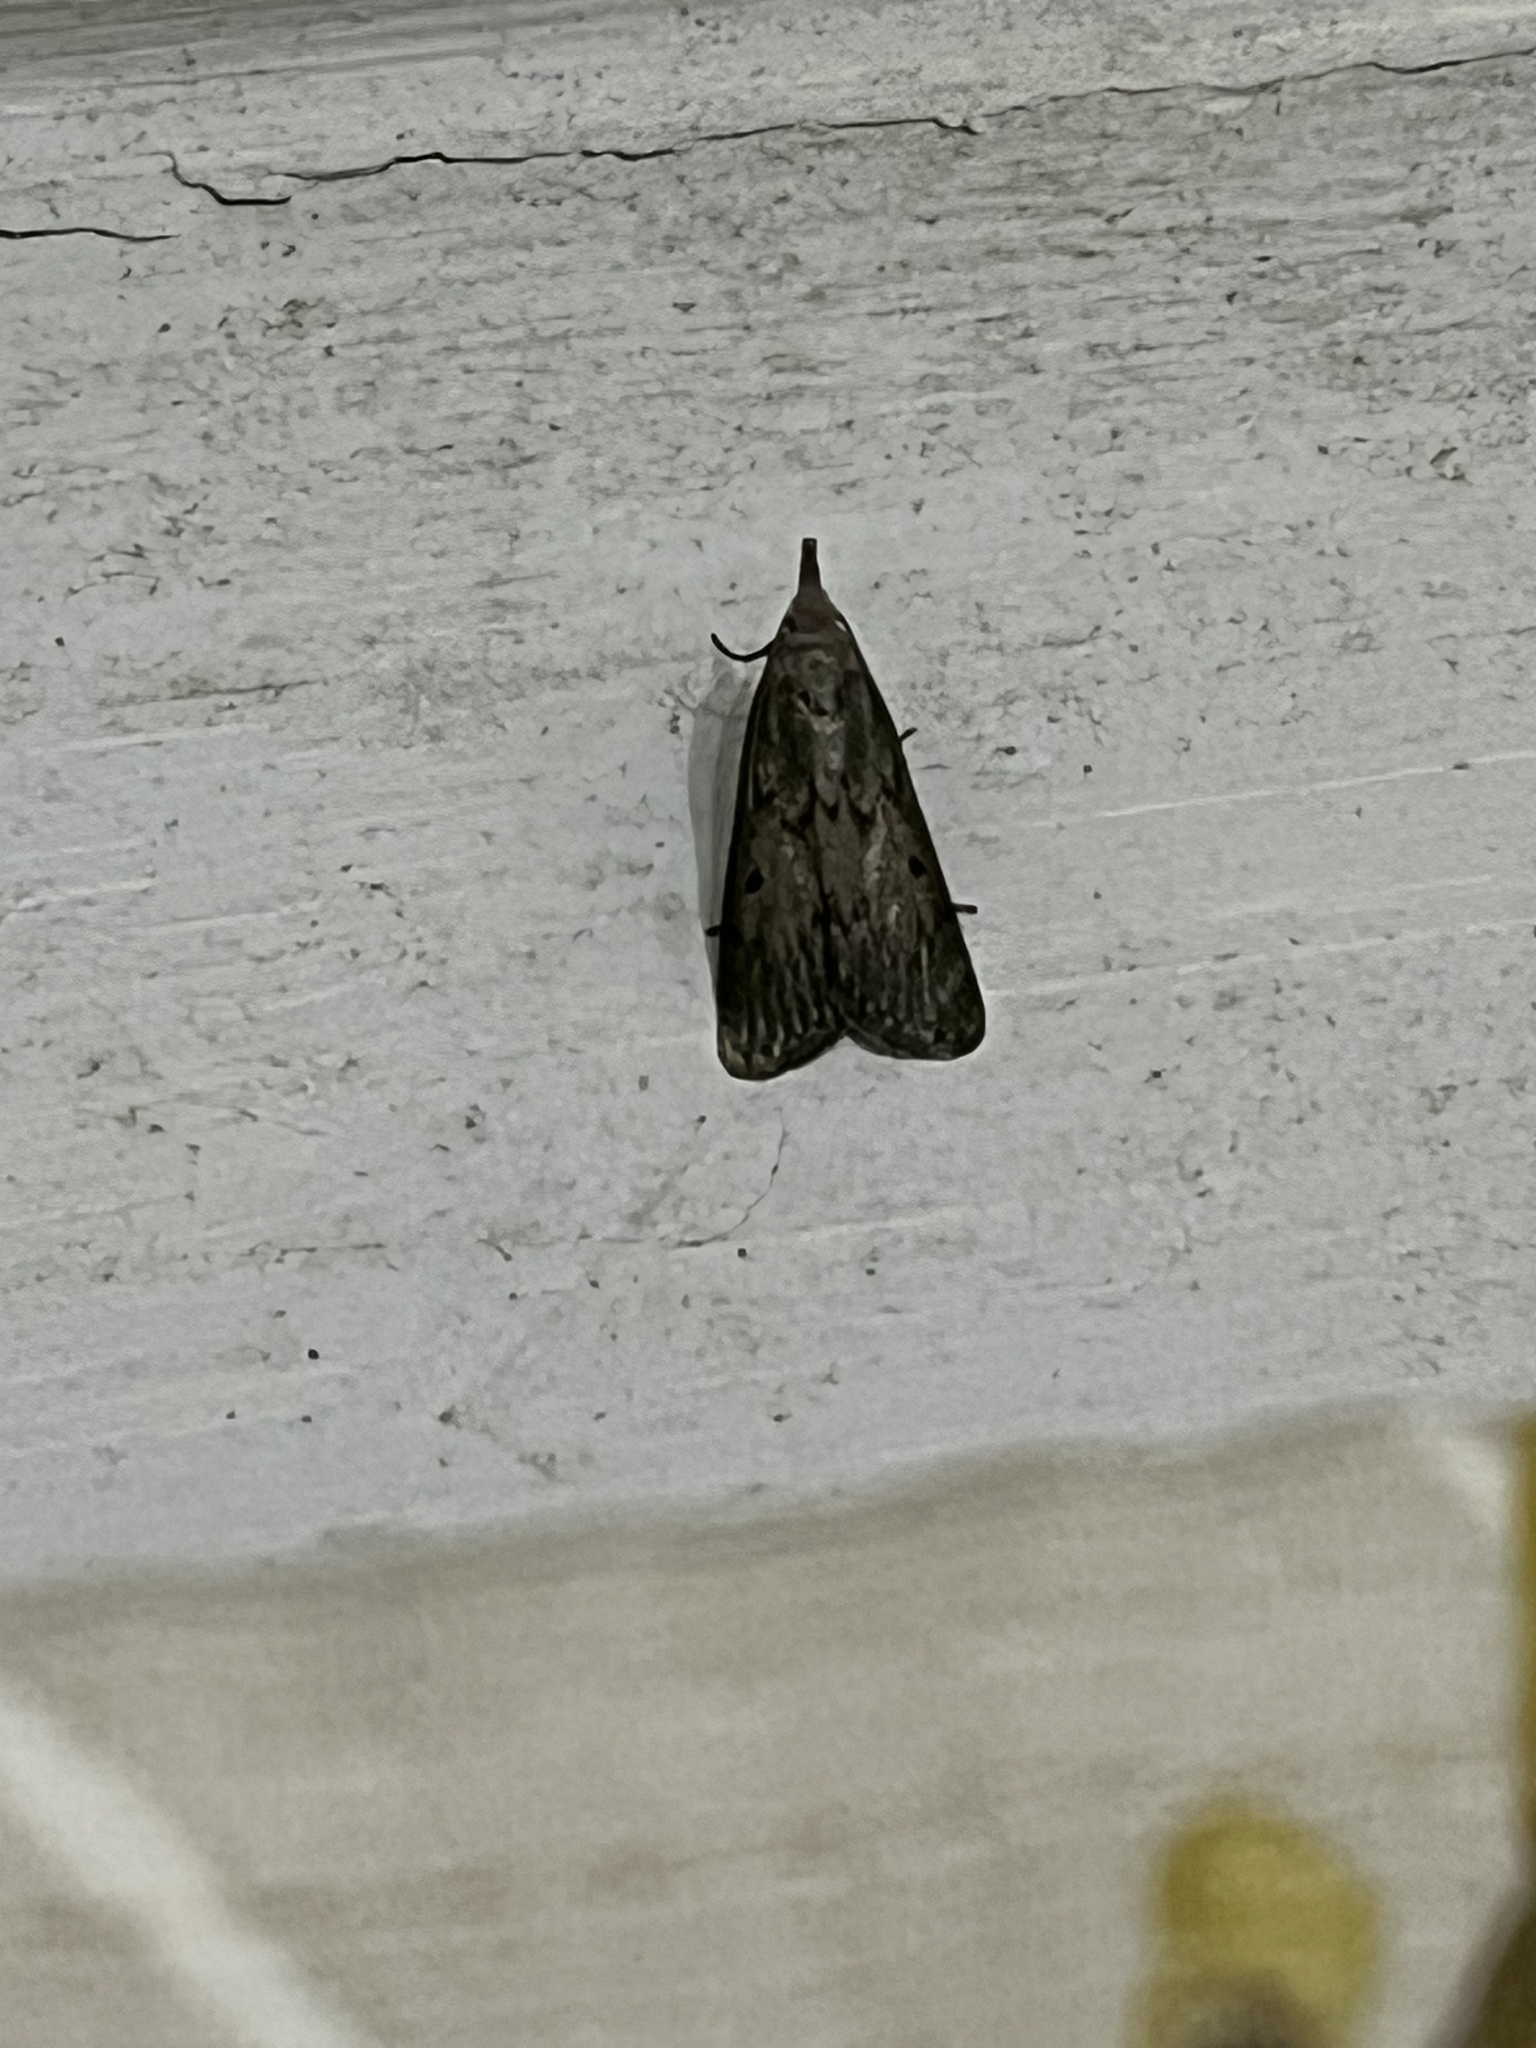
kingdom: Animalia
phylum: Arthropoda
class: Insecta
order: Lepidoptera
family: Pyralidae
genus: Aphomia
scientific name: Aphomia sociella
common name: Bee moth
